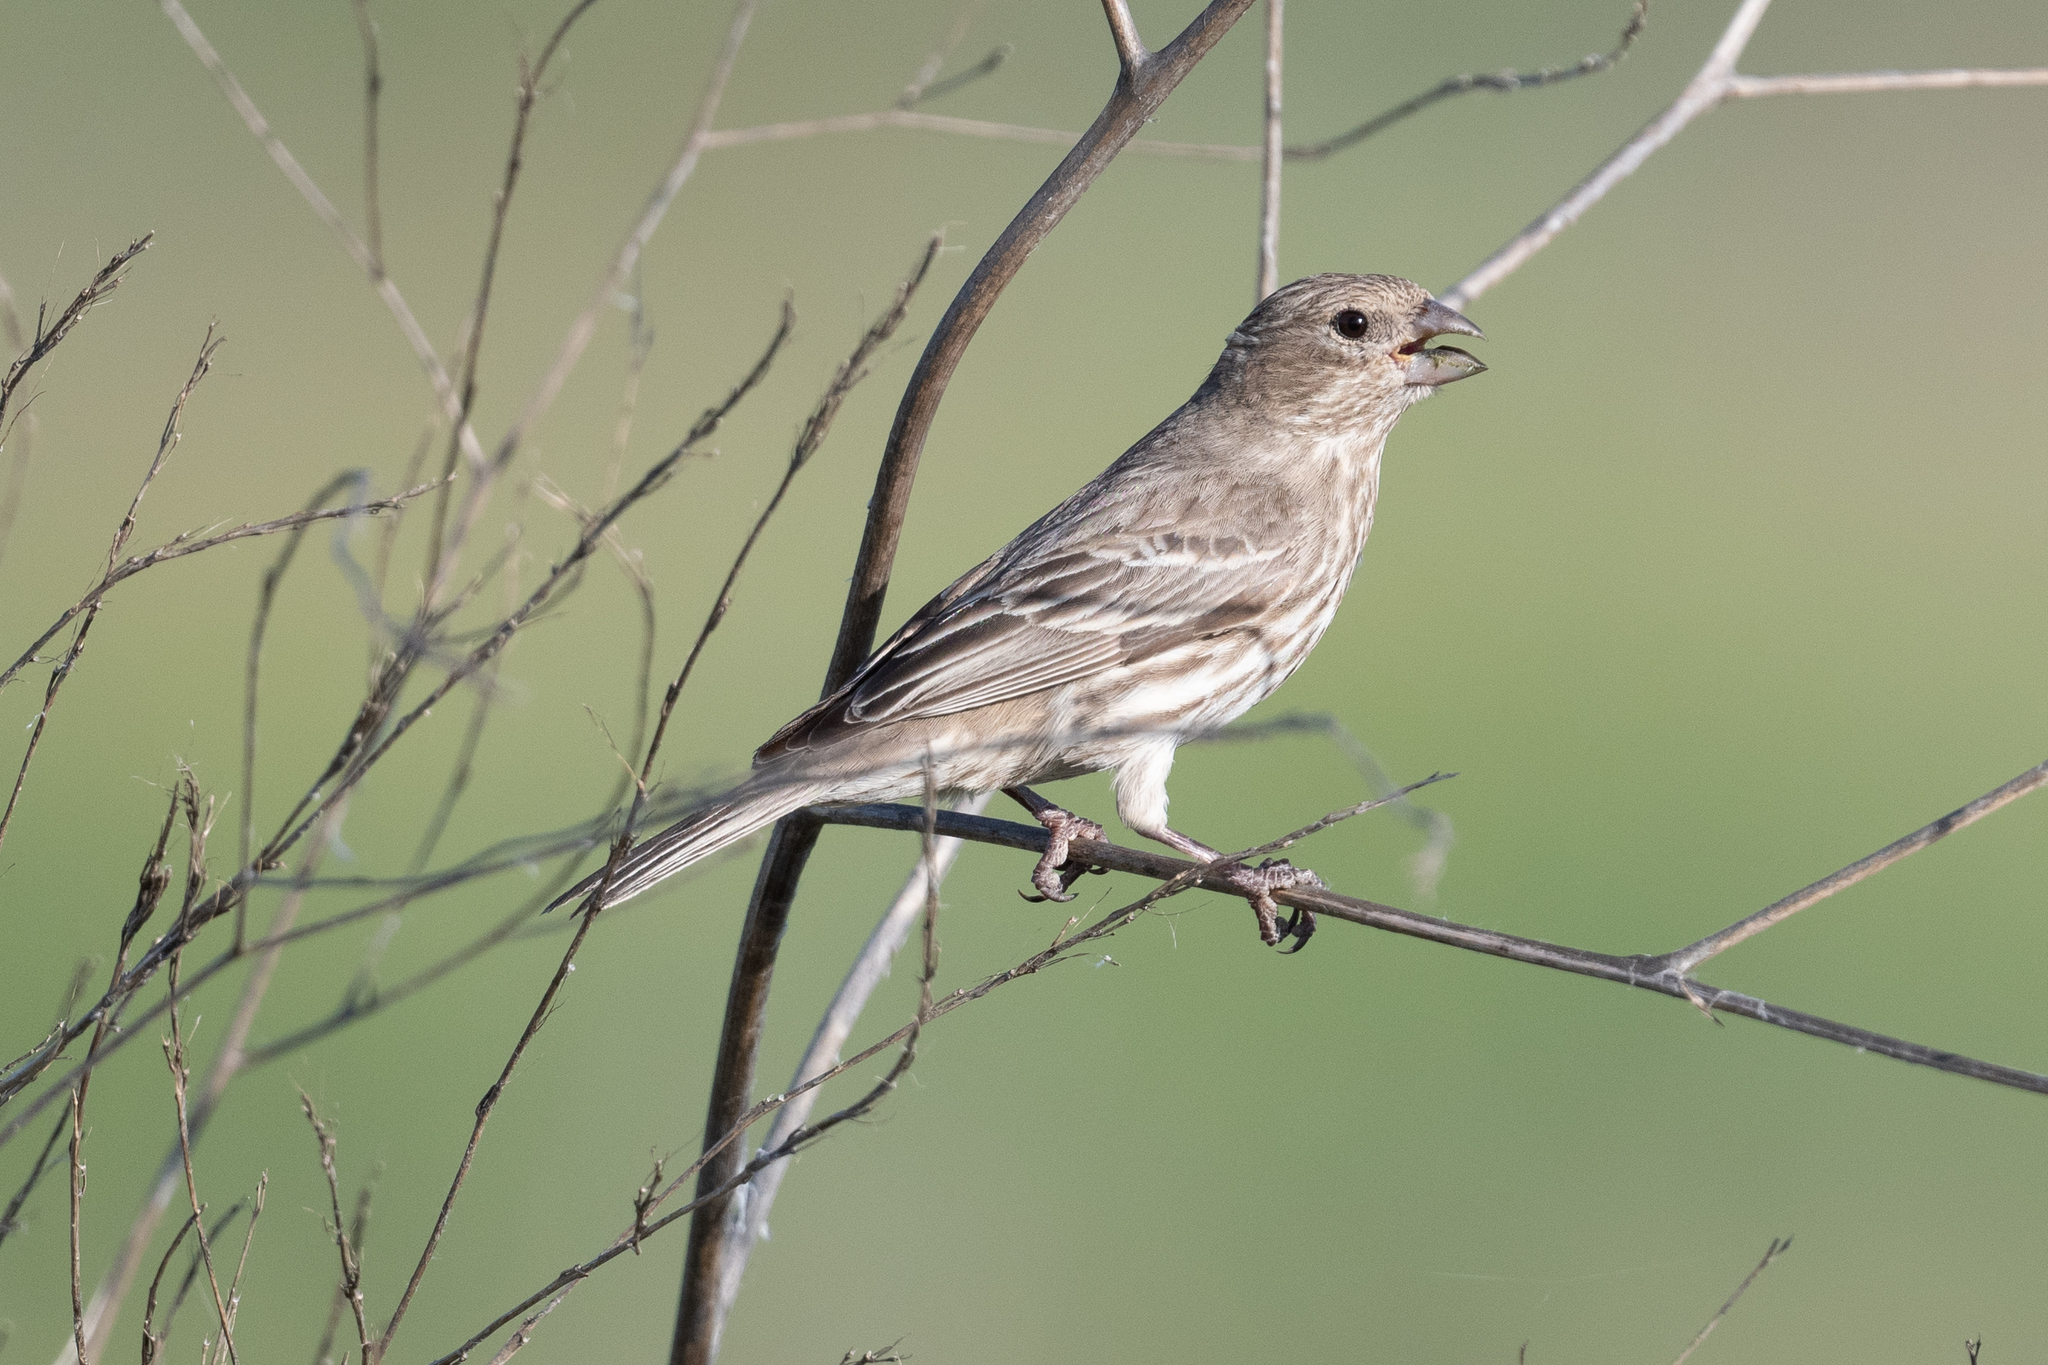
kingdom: Animalia
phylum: Chordata
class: Aves
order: Passeriformes
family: Fringillidae
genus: Haemorhous
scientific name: Haemorhous mexicanus
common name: House finch
